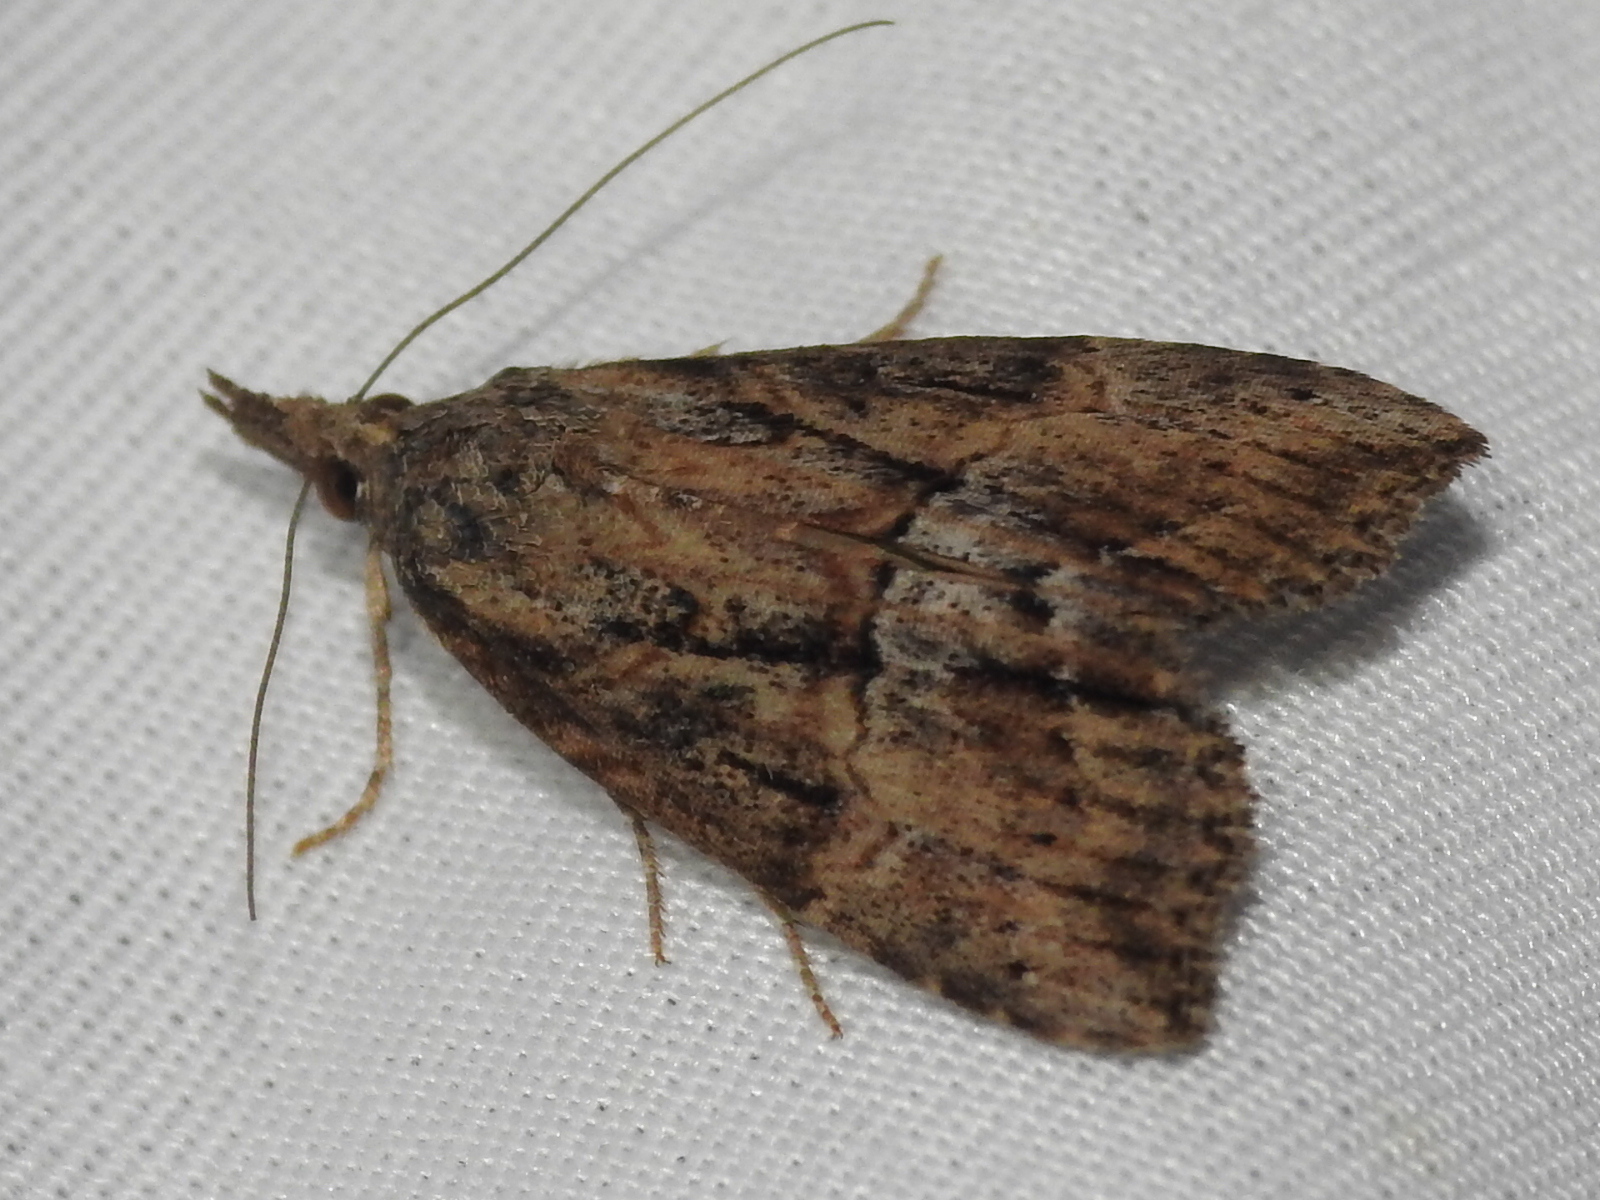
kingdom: Animalia
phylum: Arthropoda
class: Insecta
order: Lepidoptera
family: Erebidae
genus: Hypena
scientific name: Hypena scabra
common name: Green cloverworm
